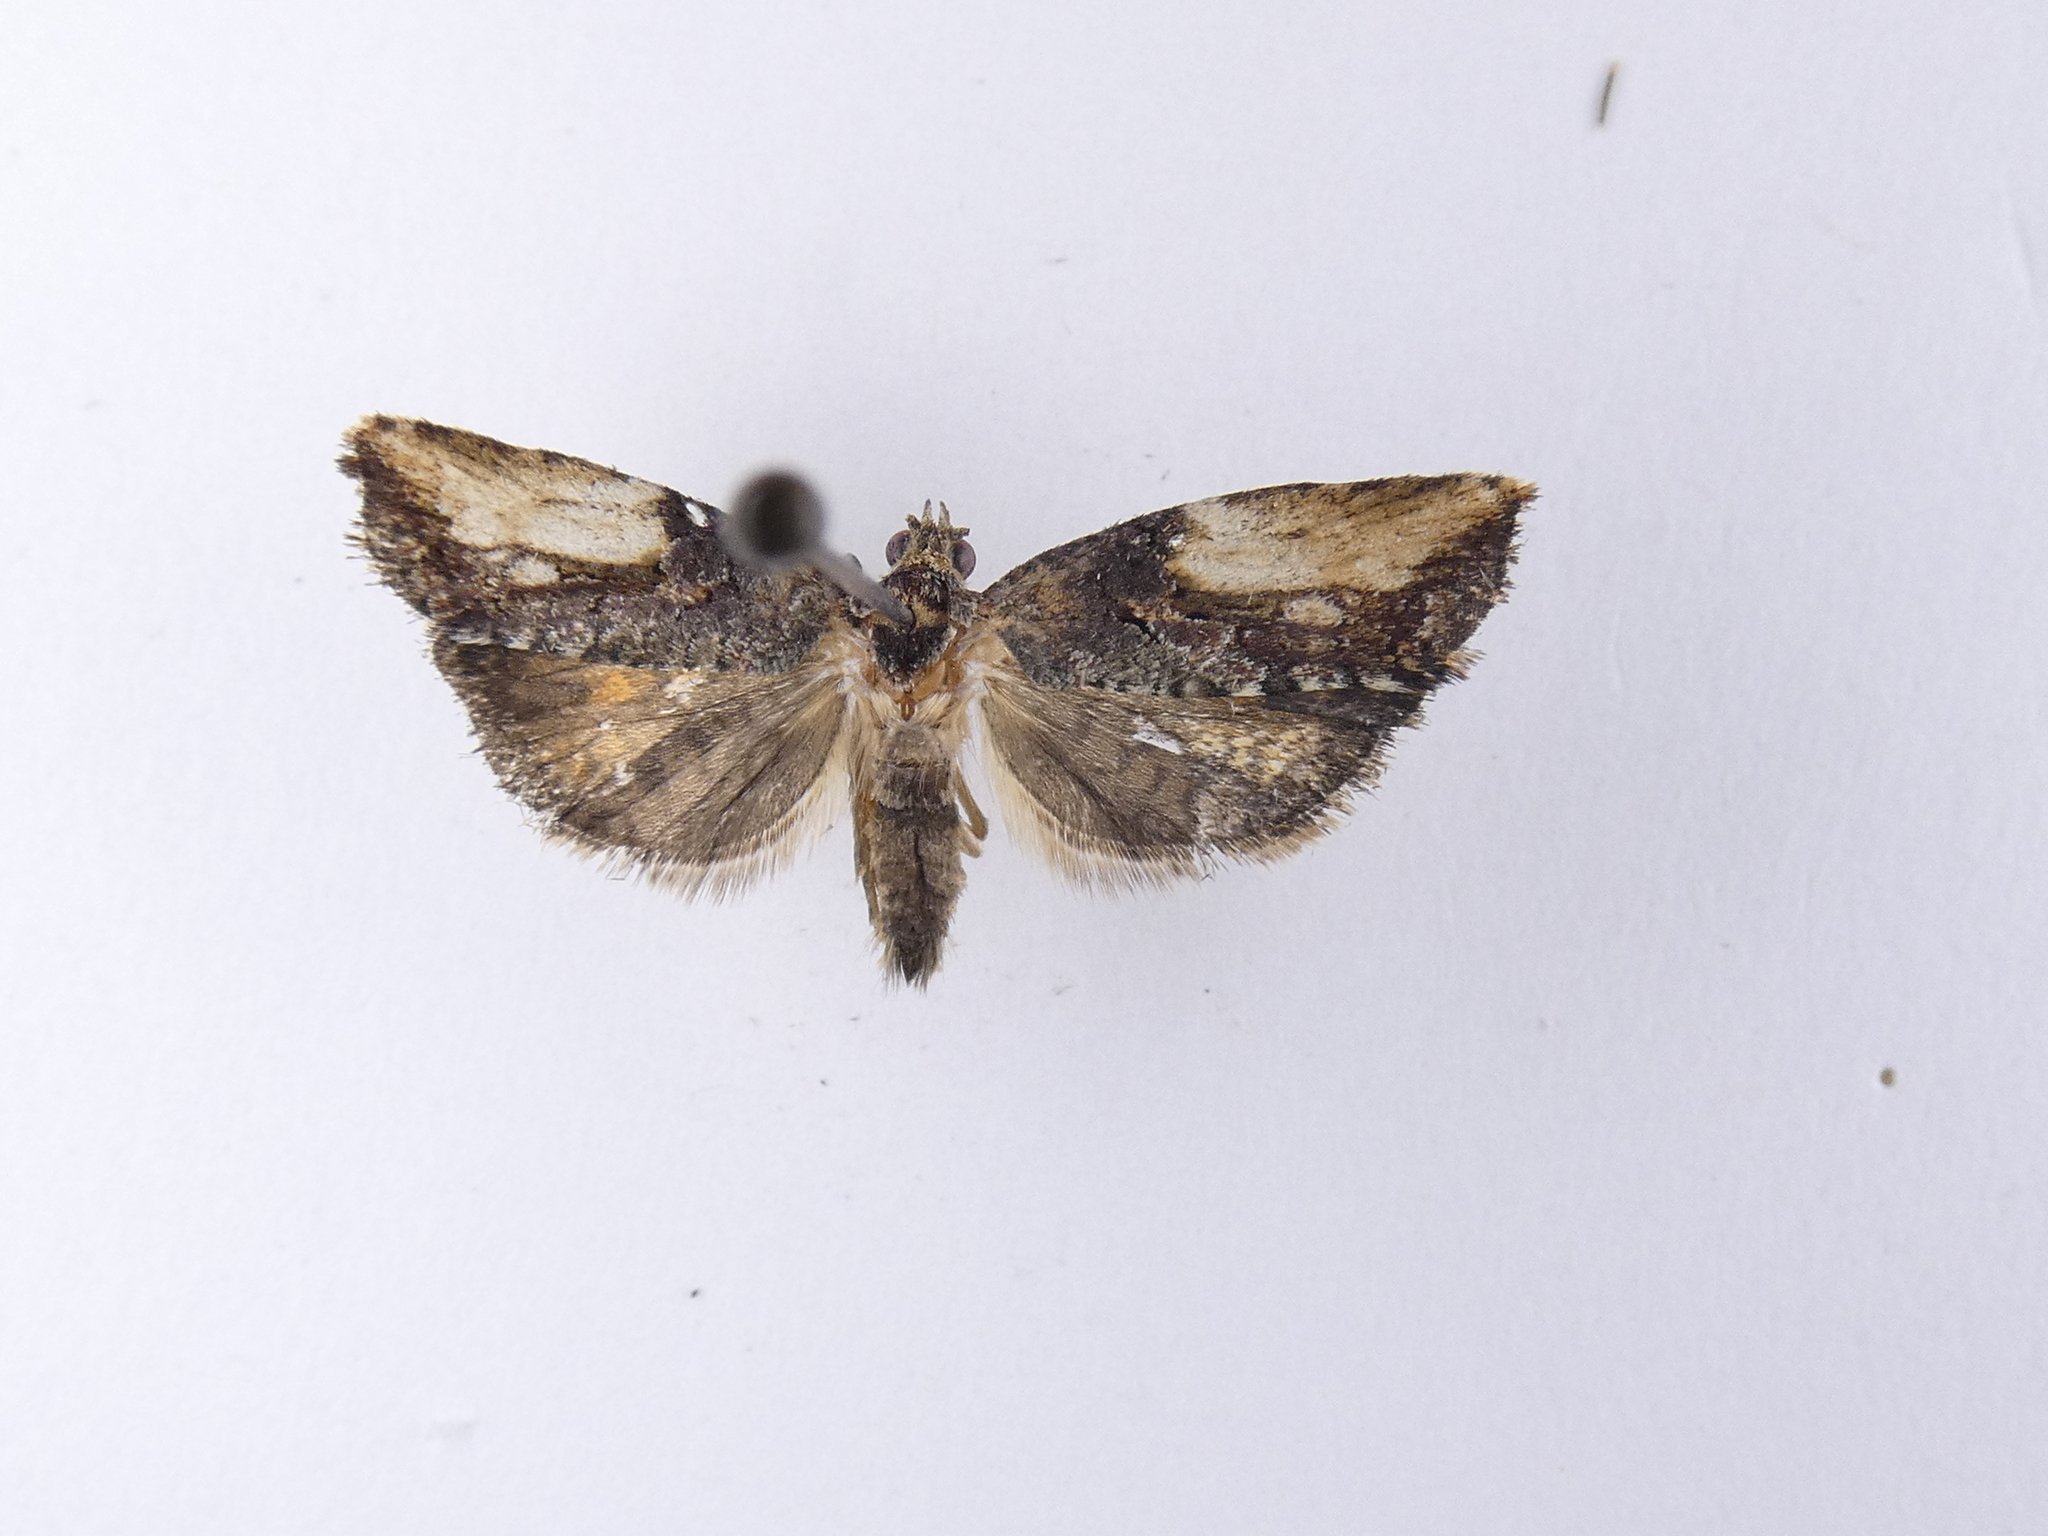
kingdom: Animalia
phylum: Arthropoda
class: Insecta
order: Lepidoptera
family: Tortricidae
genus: Harmologa
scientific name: Harmologa scoliastis
